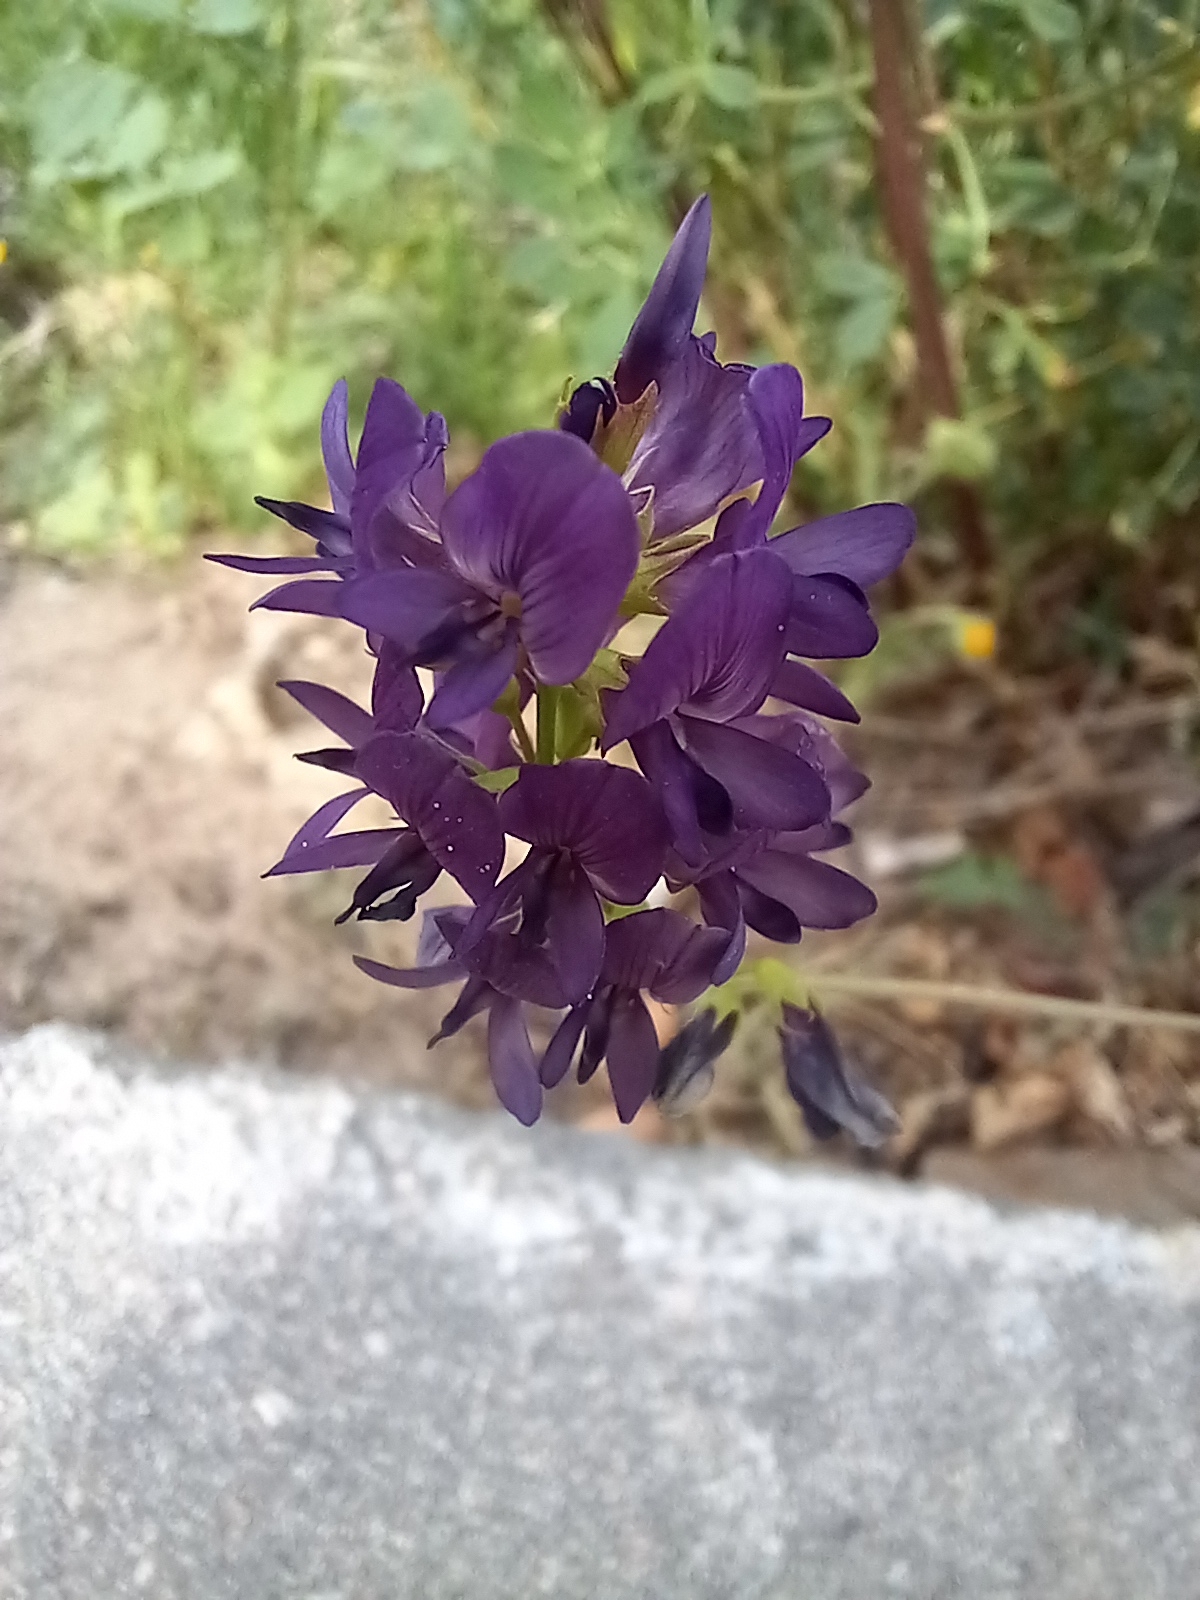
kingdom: Plantae
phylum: Tracheophyta
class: Magnoliopsida
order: Fabales
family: Fabaceae
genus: Medicago
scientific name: Medicago sativa
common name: Alfalfa
